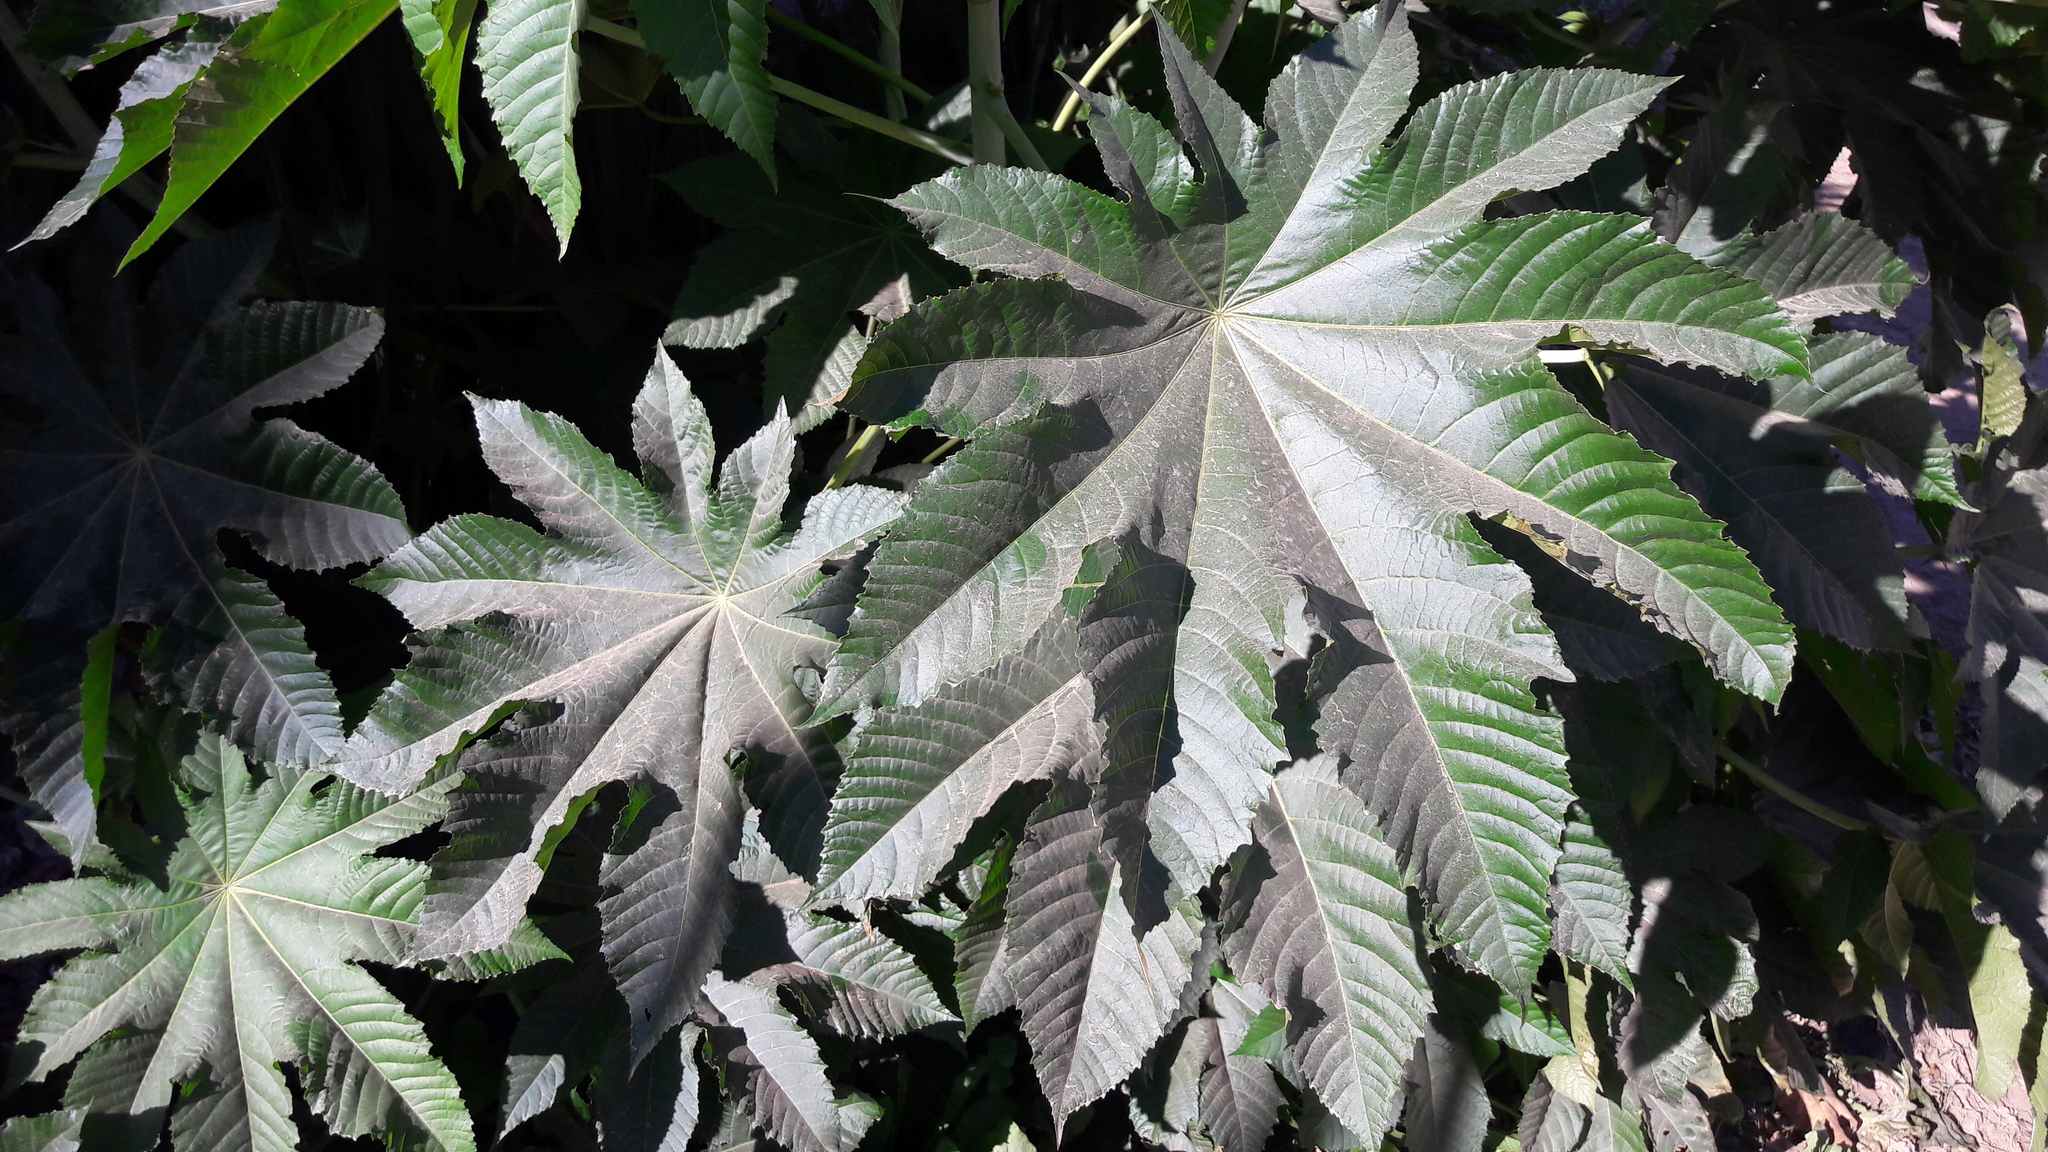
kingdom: Plantae
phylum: Tracheophyta
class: Magnoliopsida
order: Malpighiales
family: Euphorbiaceae
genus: Ricinus
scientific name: Ricinus communis
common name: Castor-oil-plant
